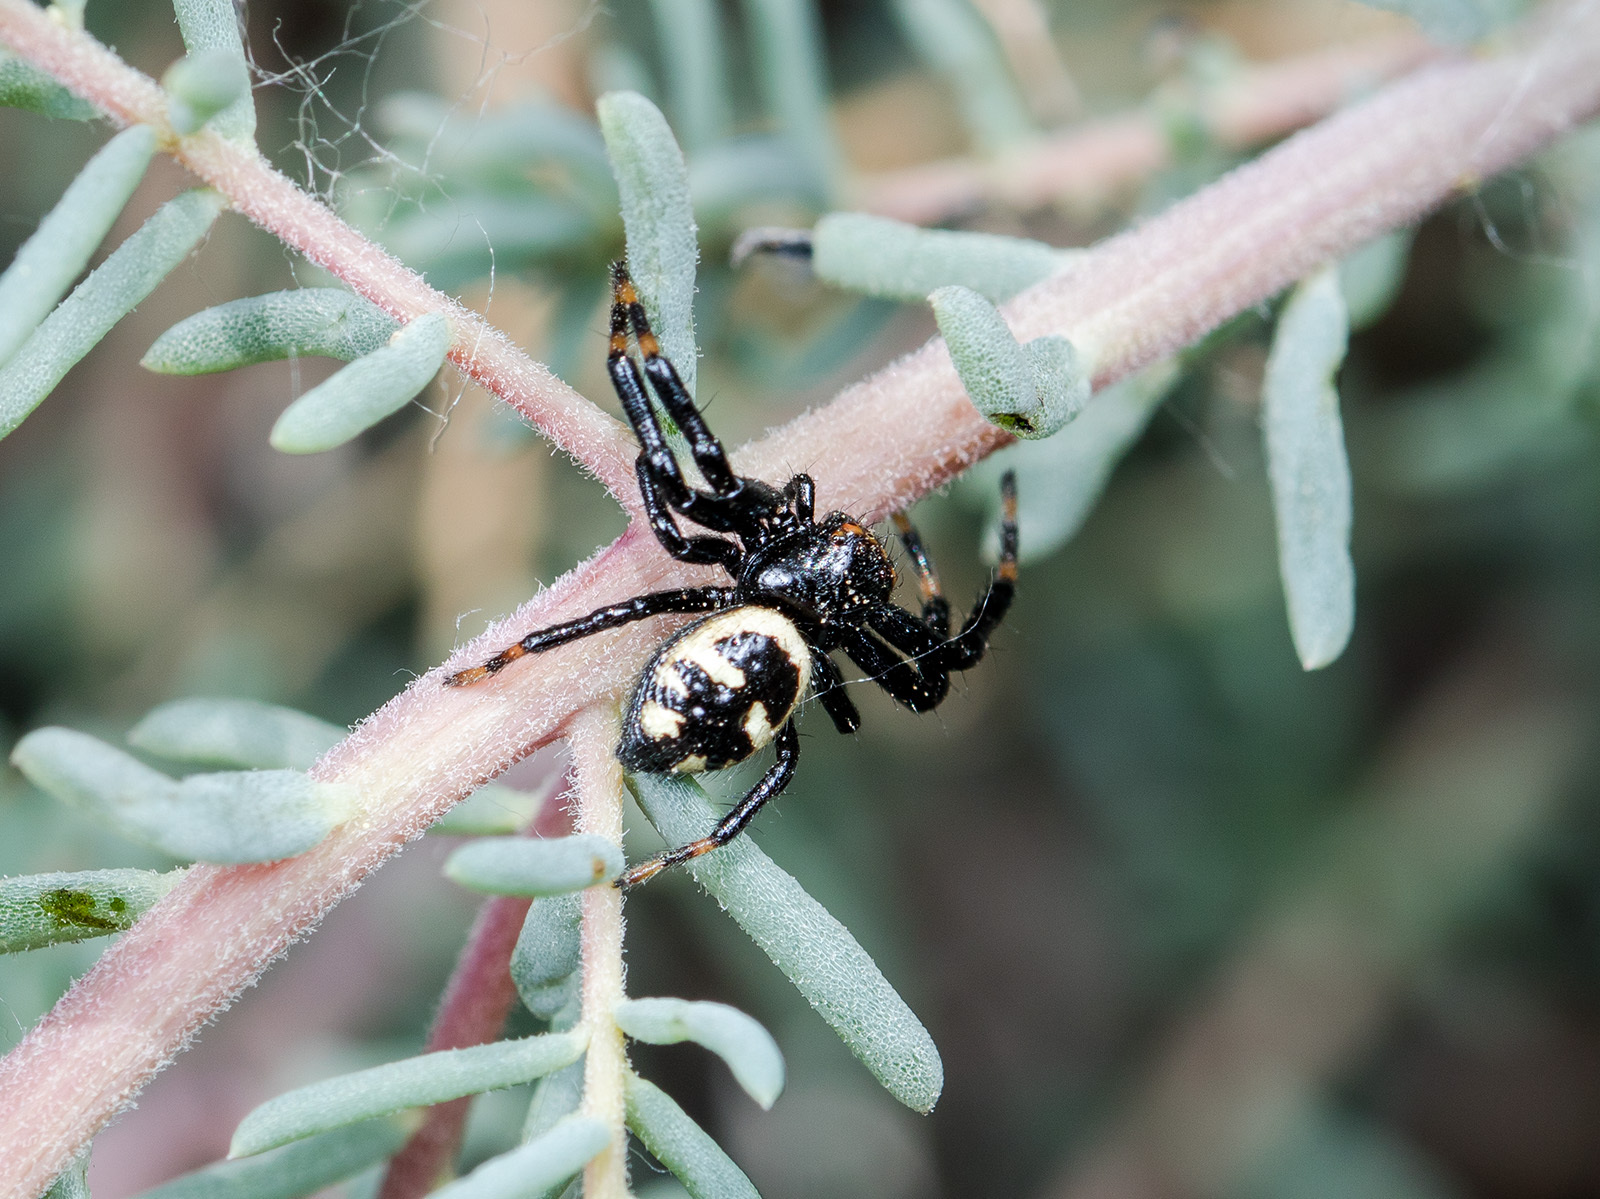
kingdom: Animalia
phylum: Arthropoda
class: Arachnida
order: Araneae
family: Thomisidae
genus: Synema
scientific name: Synema utotchkini
